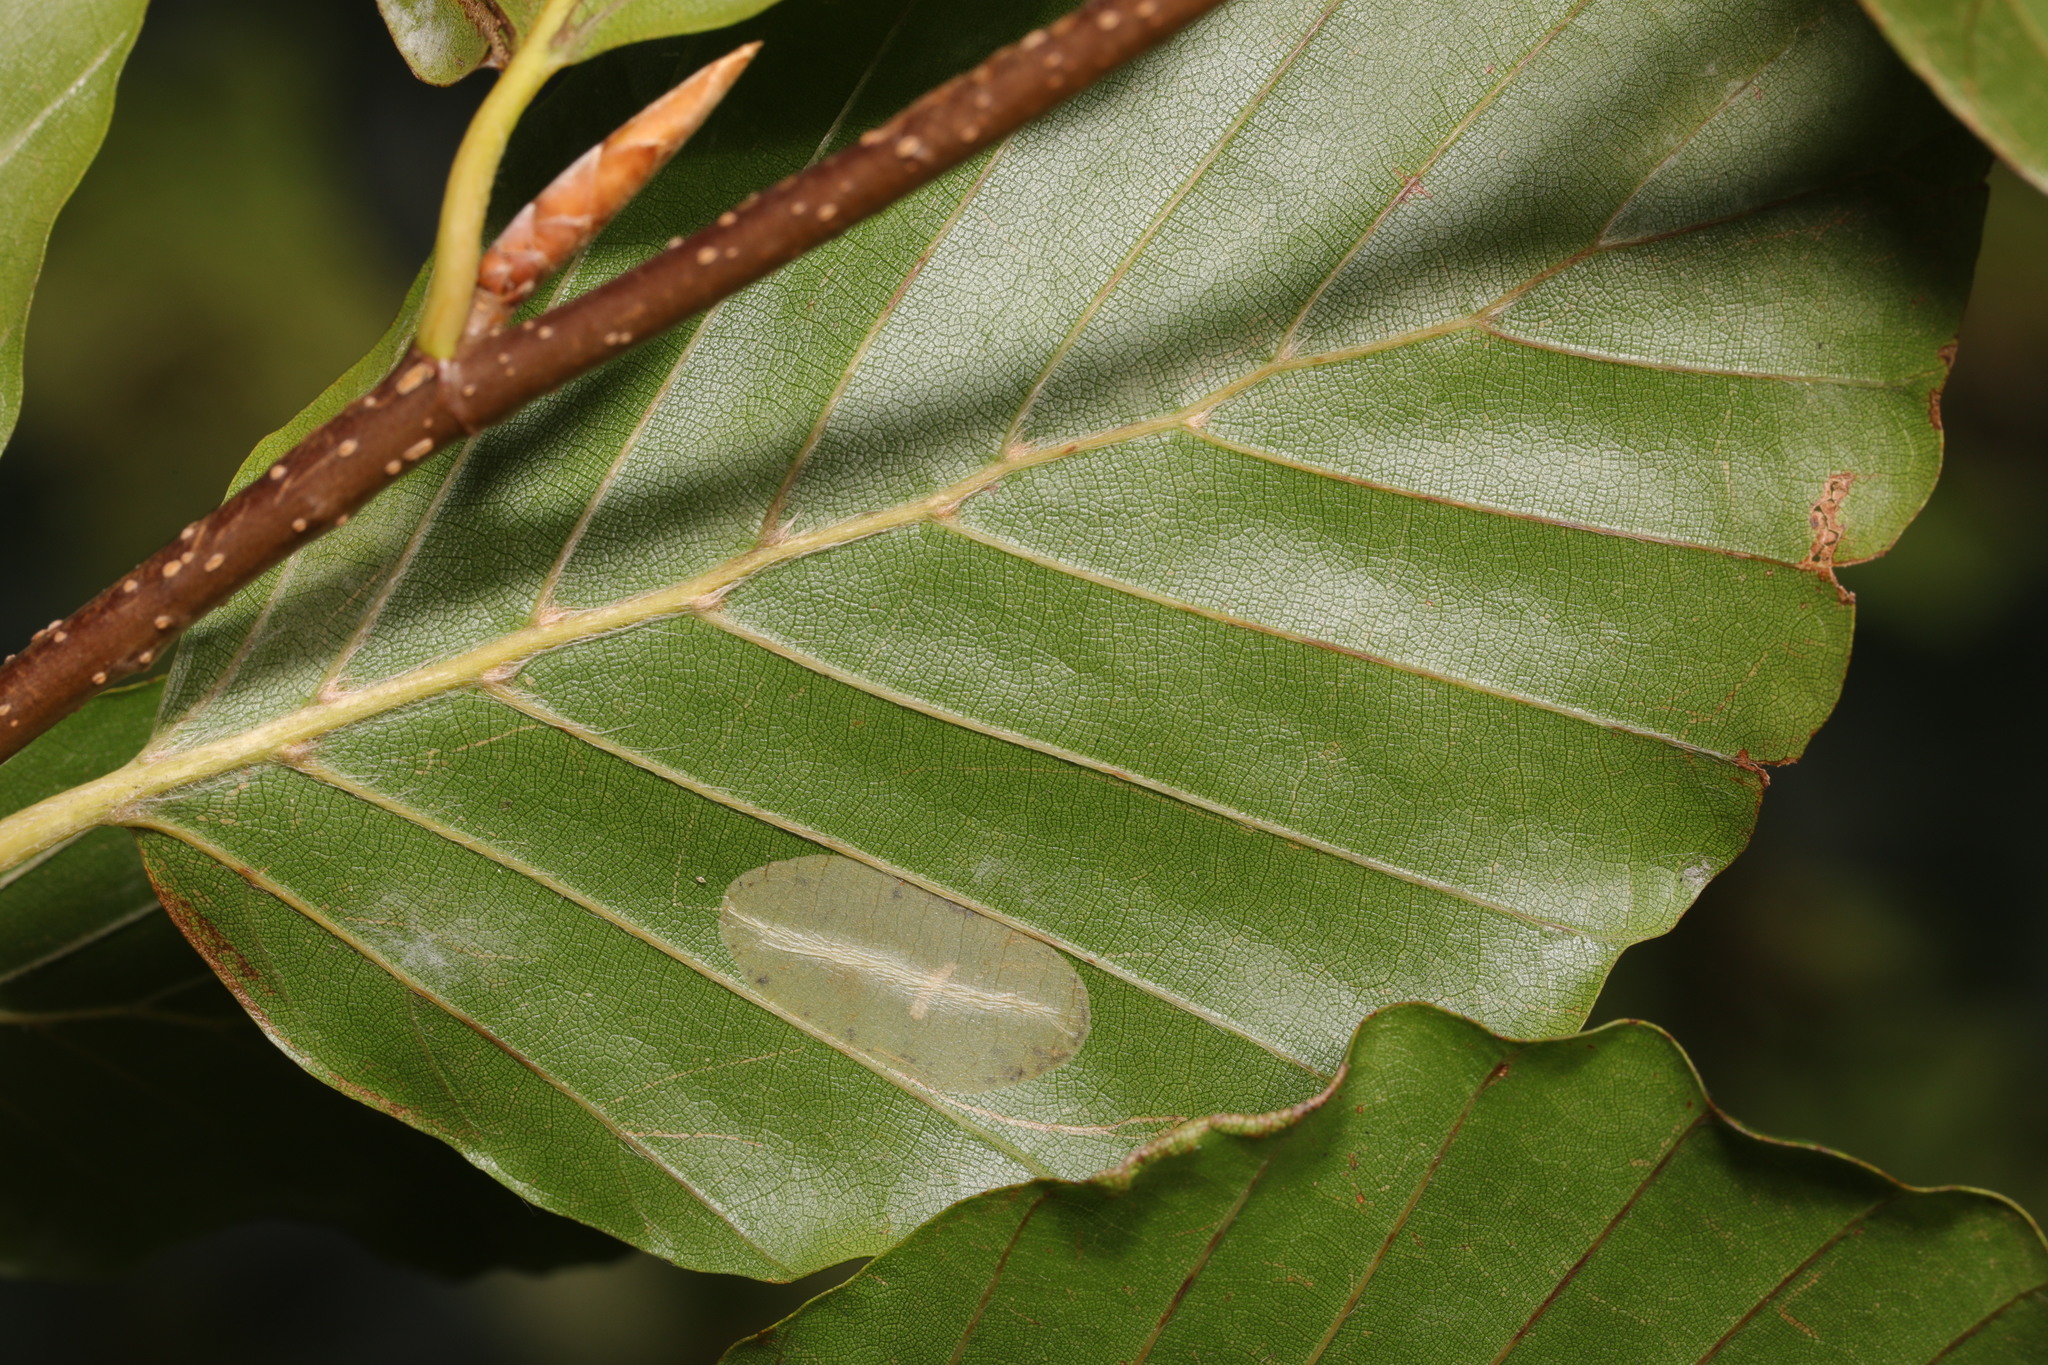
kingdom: Animalia
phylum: Arthropoda
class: Insecta
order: Lepidoptera
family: Gracillariidae
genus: Phyllonorycter
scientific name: Phyllonorycter maestingella
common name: Beech midget
